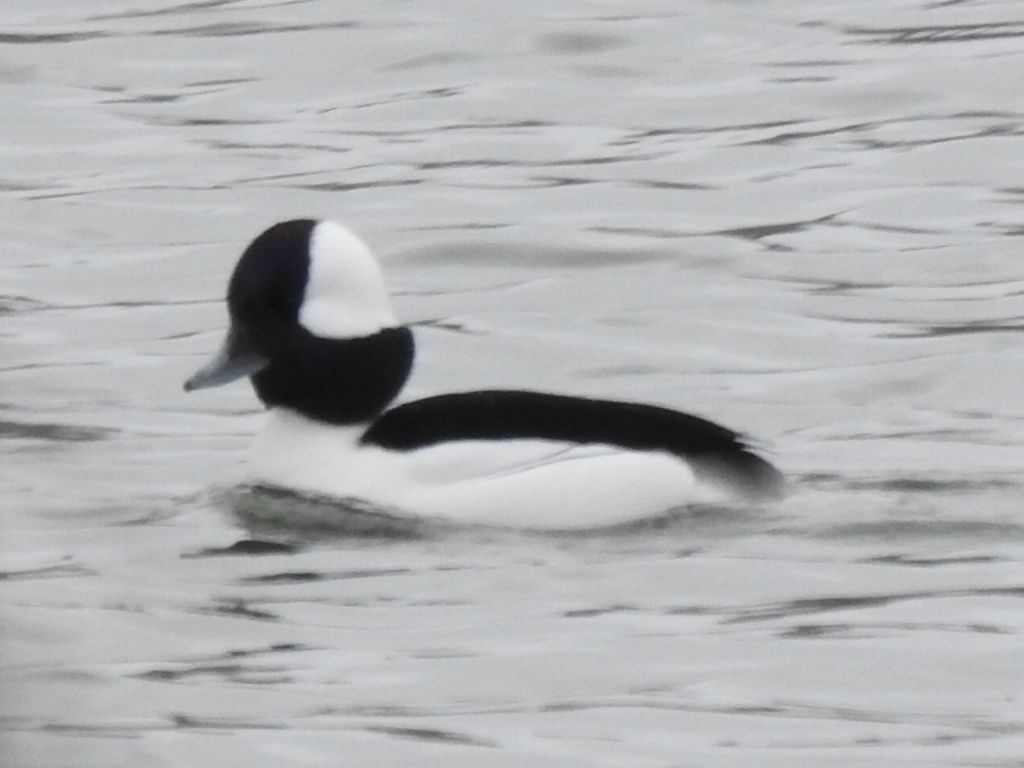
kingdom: Animalia
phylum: Chordata
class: Aves
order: Anseriformes
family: Anatidae
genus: Bucephala
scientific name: Bucephala albeola
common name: Bufflehead
